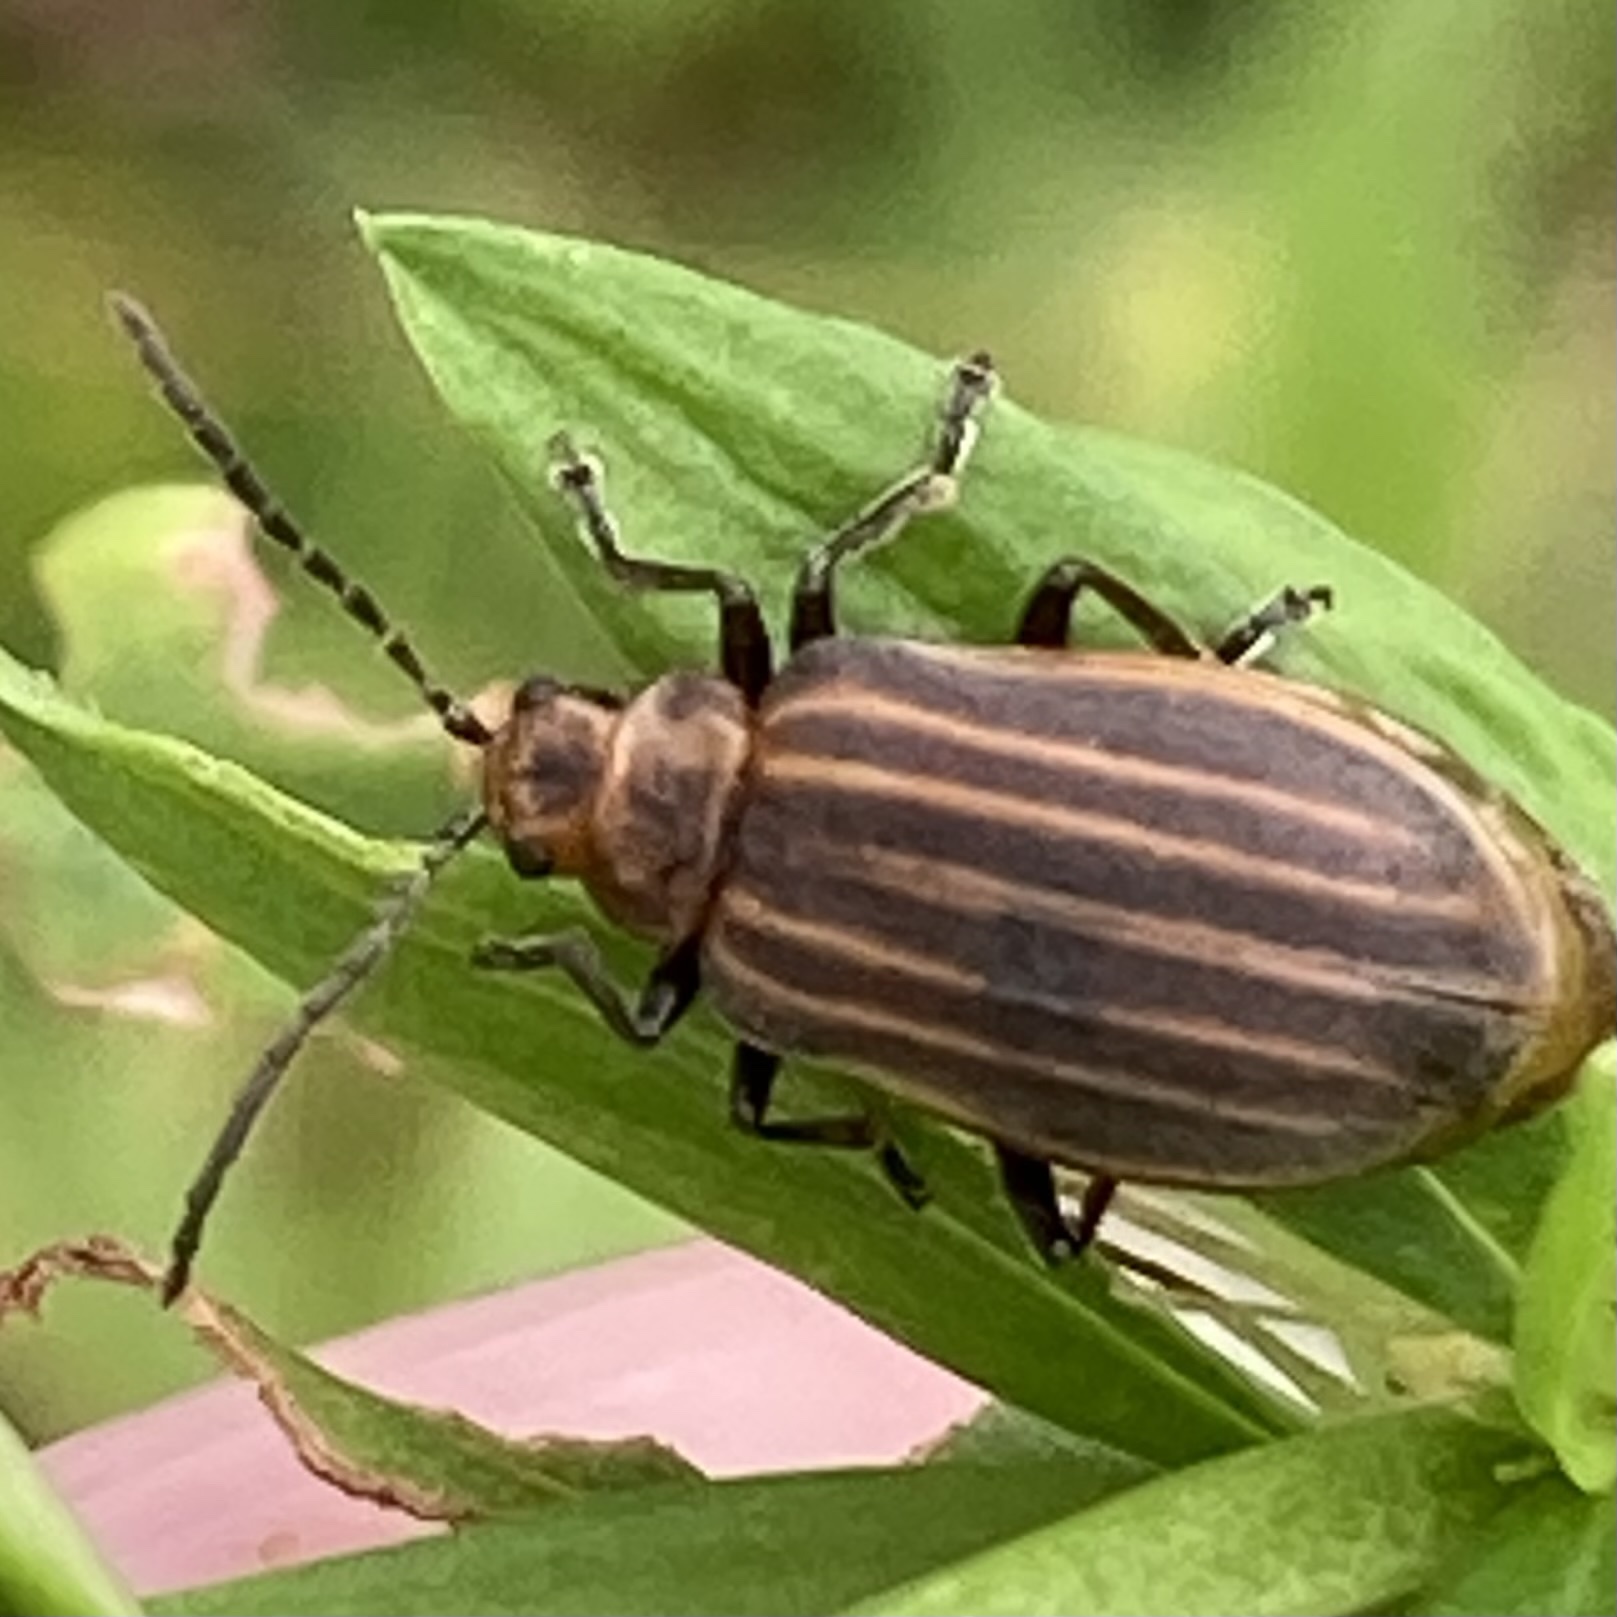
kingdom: Animalia
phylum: Arthropoda
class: Insecta
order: Coleoptera
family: Chrysomelidae
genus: Neolochmaea
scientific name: Neolochmaea dilatipennis
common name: Skeletonizing leaf beetle
